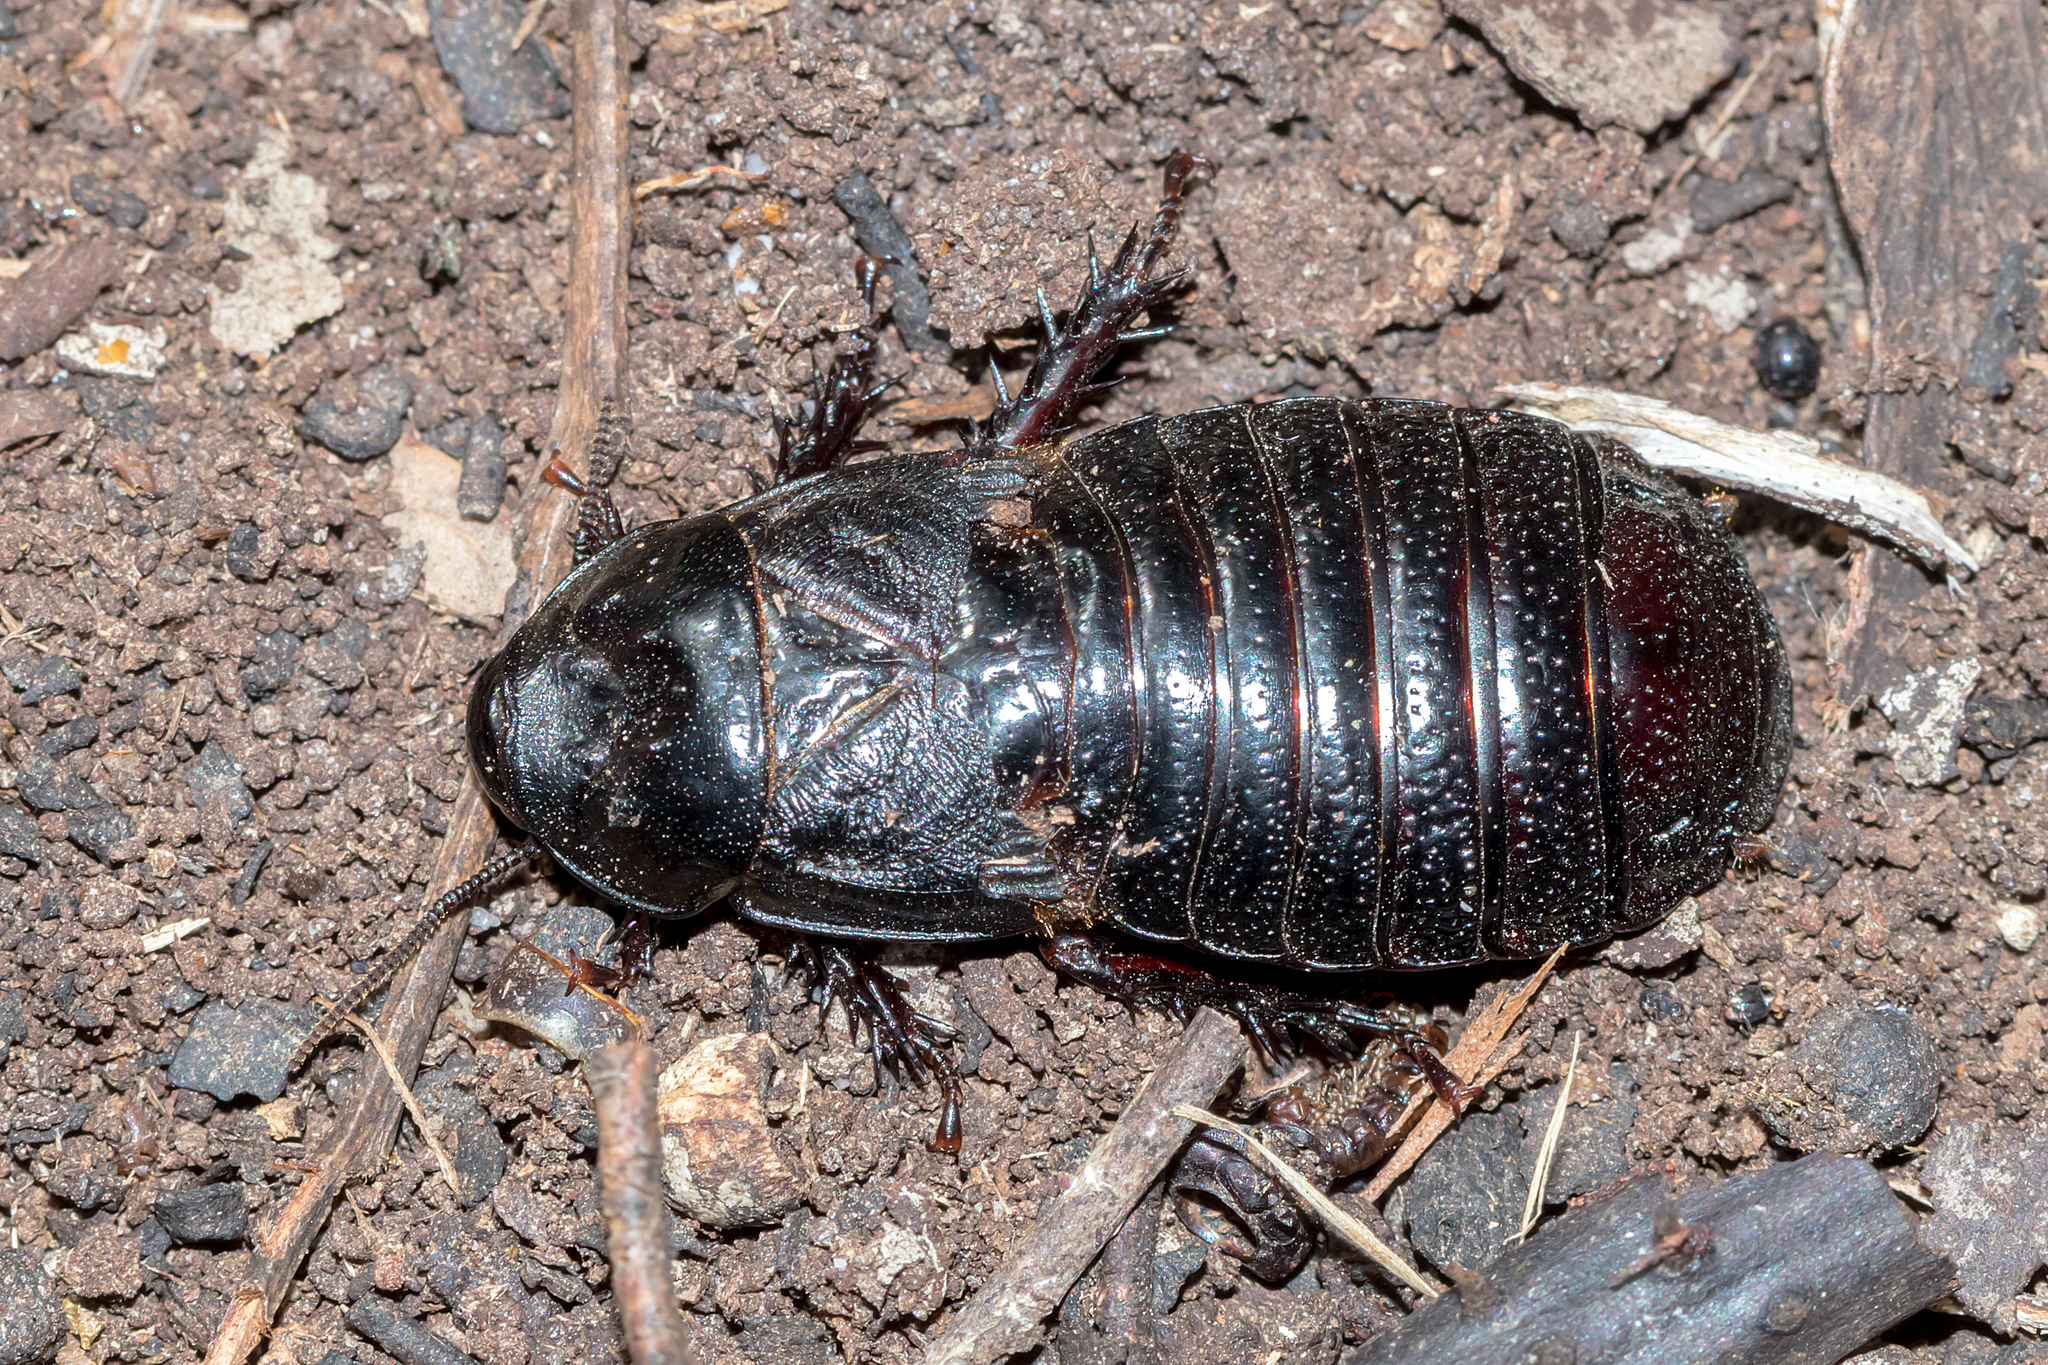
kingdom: Animalia
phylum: Arthropoda
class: Insecta
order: Blattodea
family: Blaberidae
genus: Panesthia
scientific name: Panesthia australis
